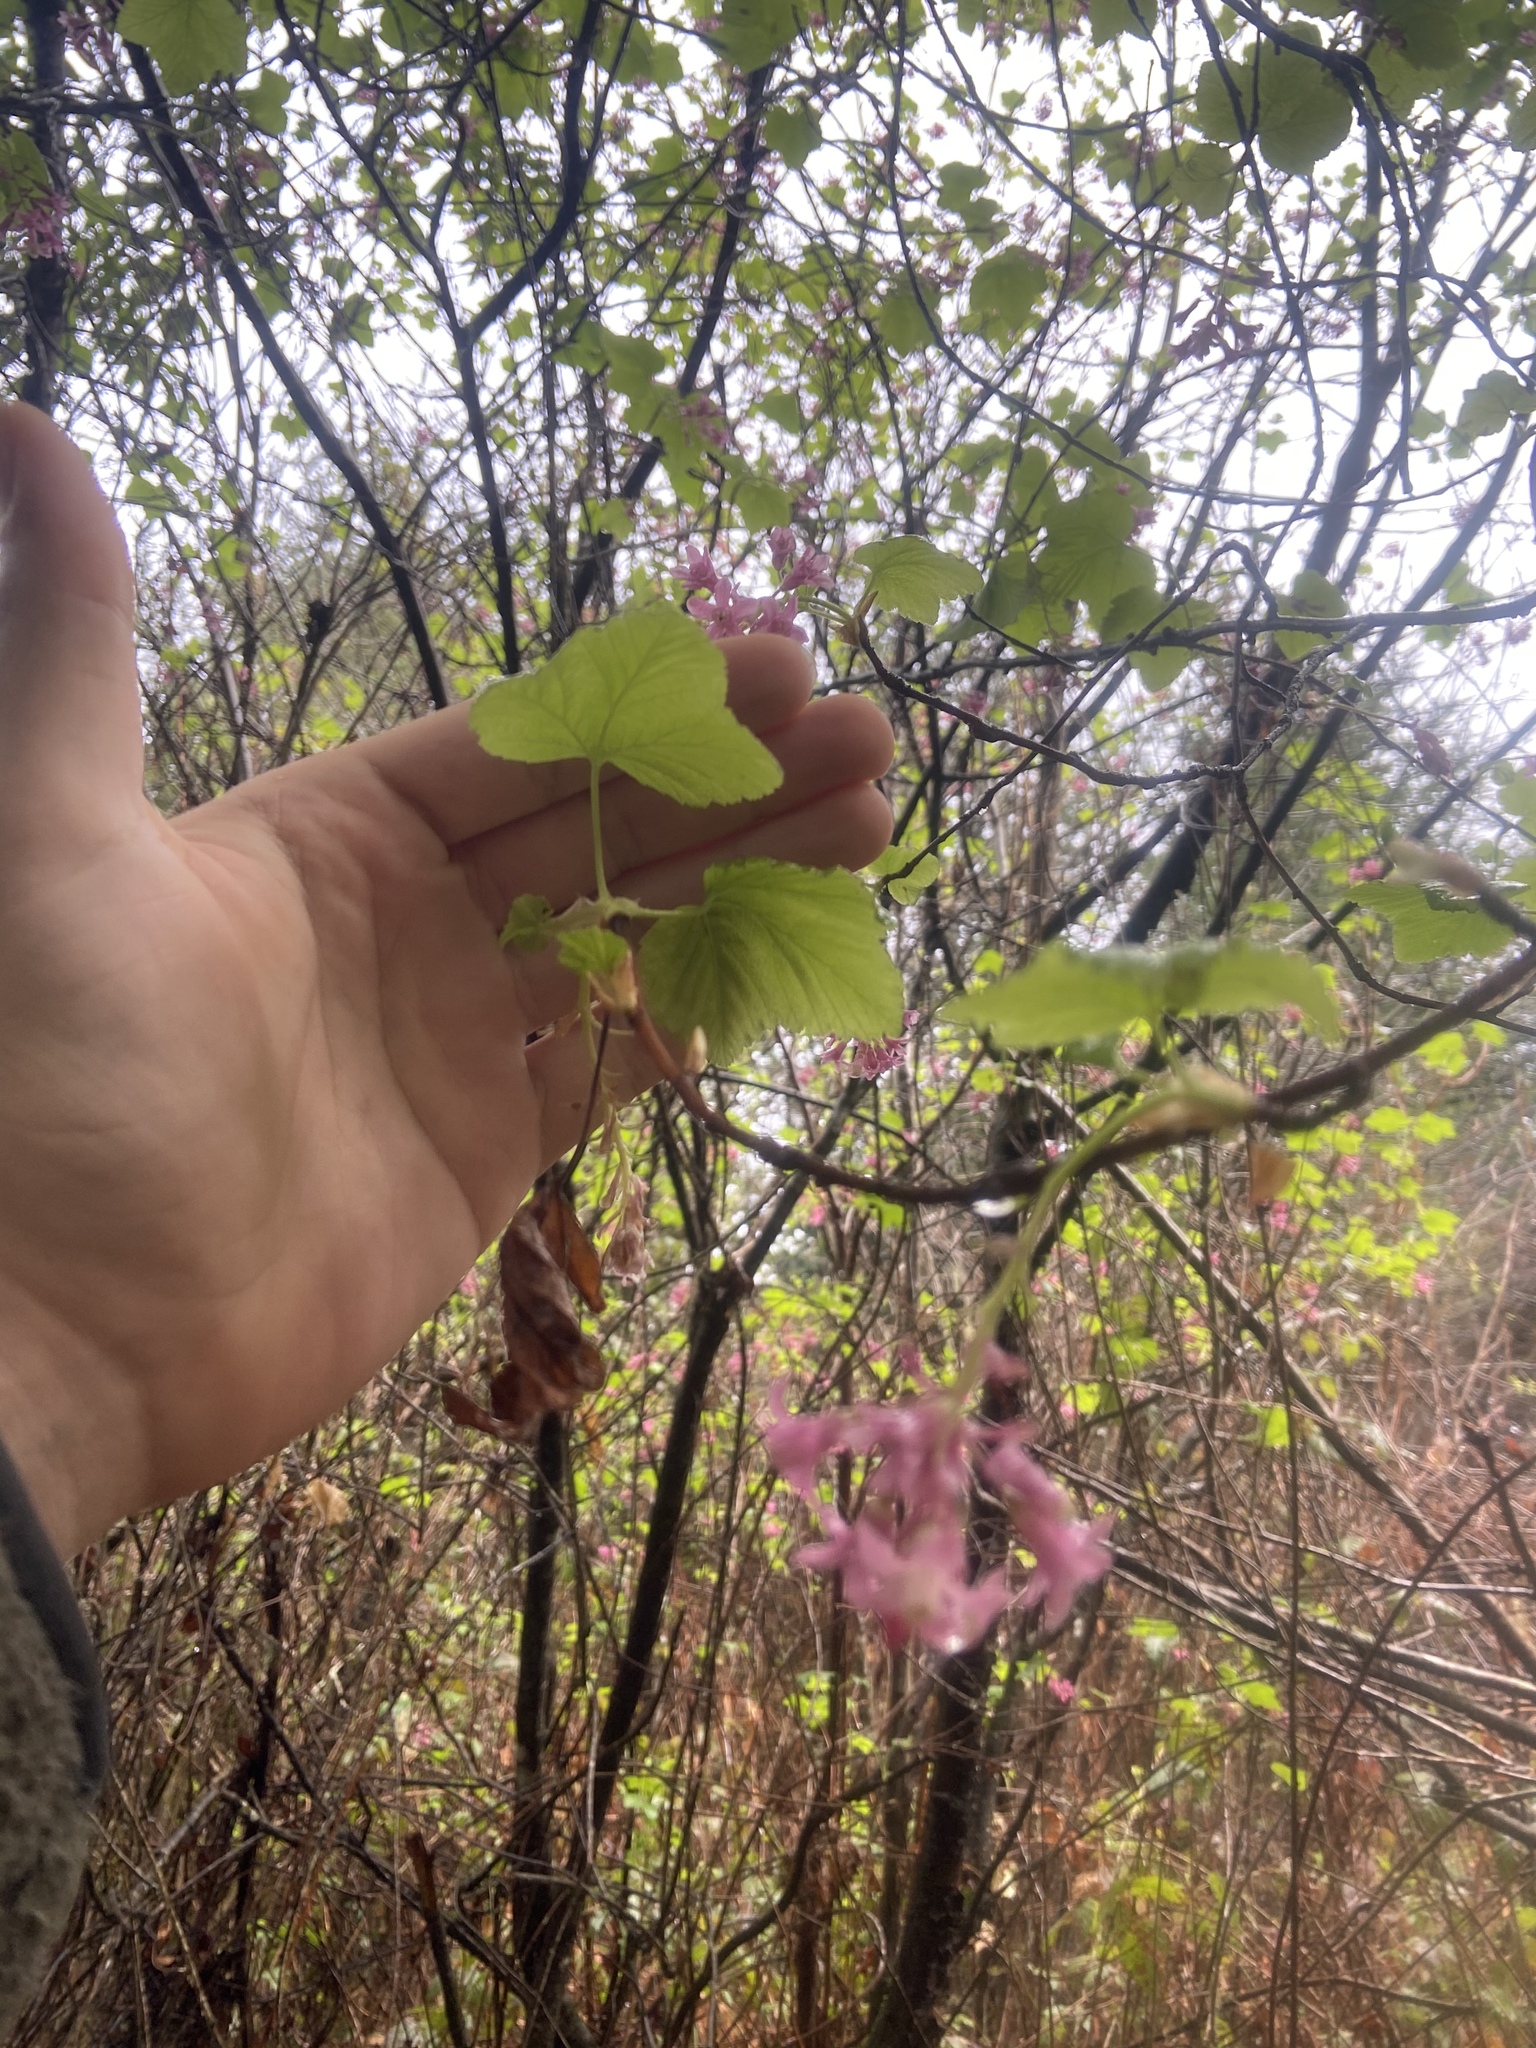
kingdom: Plantae
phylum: Tracheophyta
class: Magnoliopsida
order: Saxifragales
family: Grossulariaceae
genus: Ribes
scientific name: Ribes sanguineum
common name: Flowering currant
